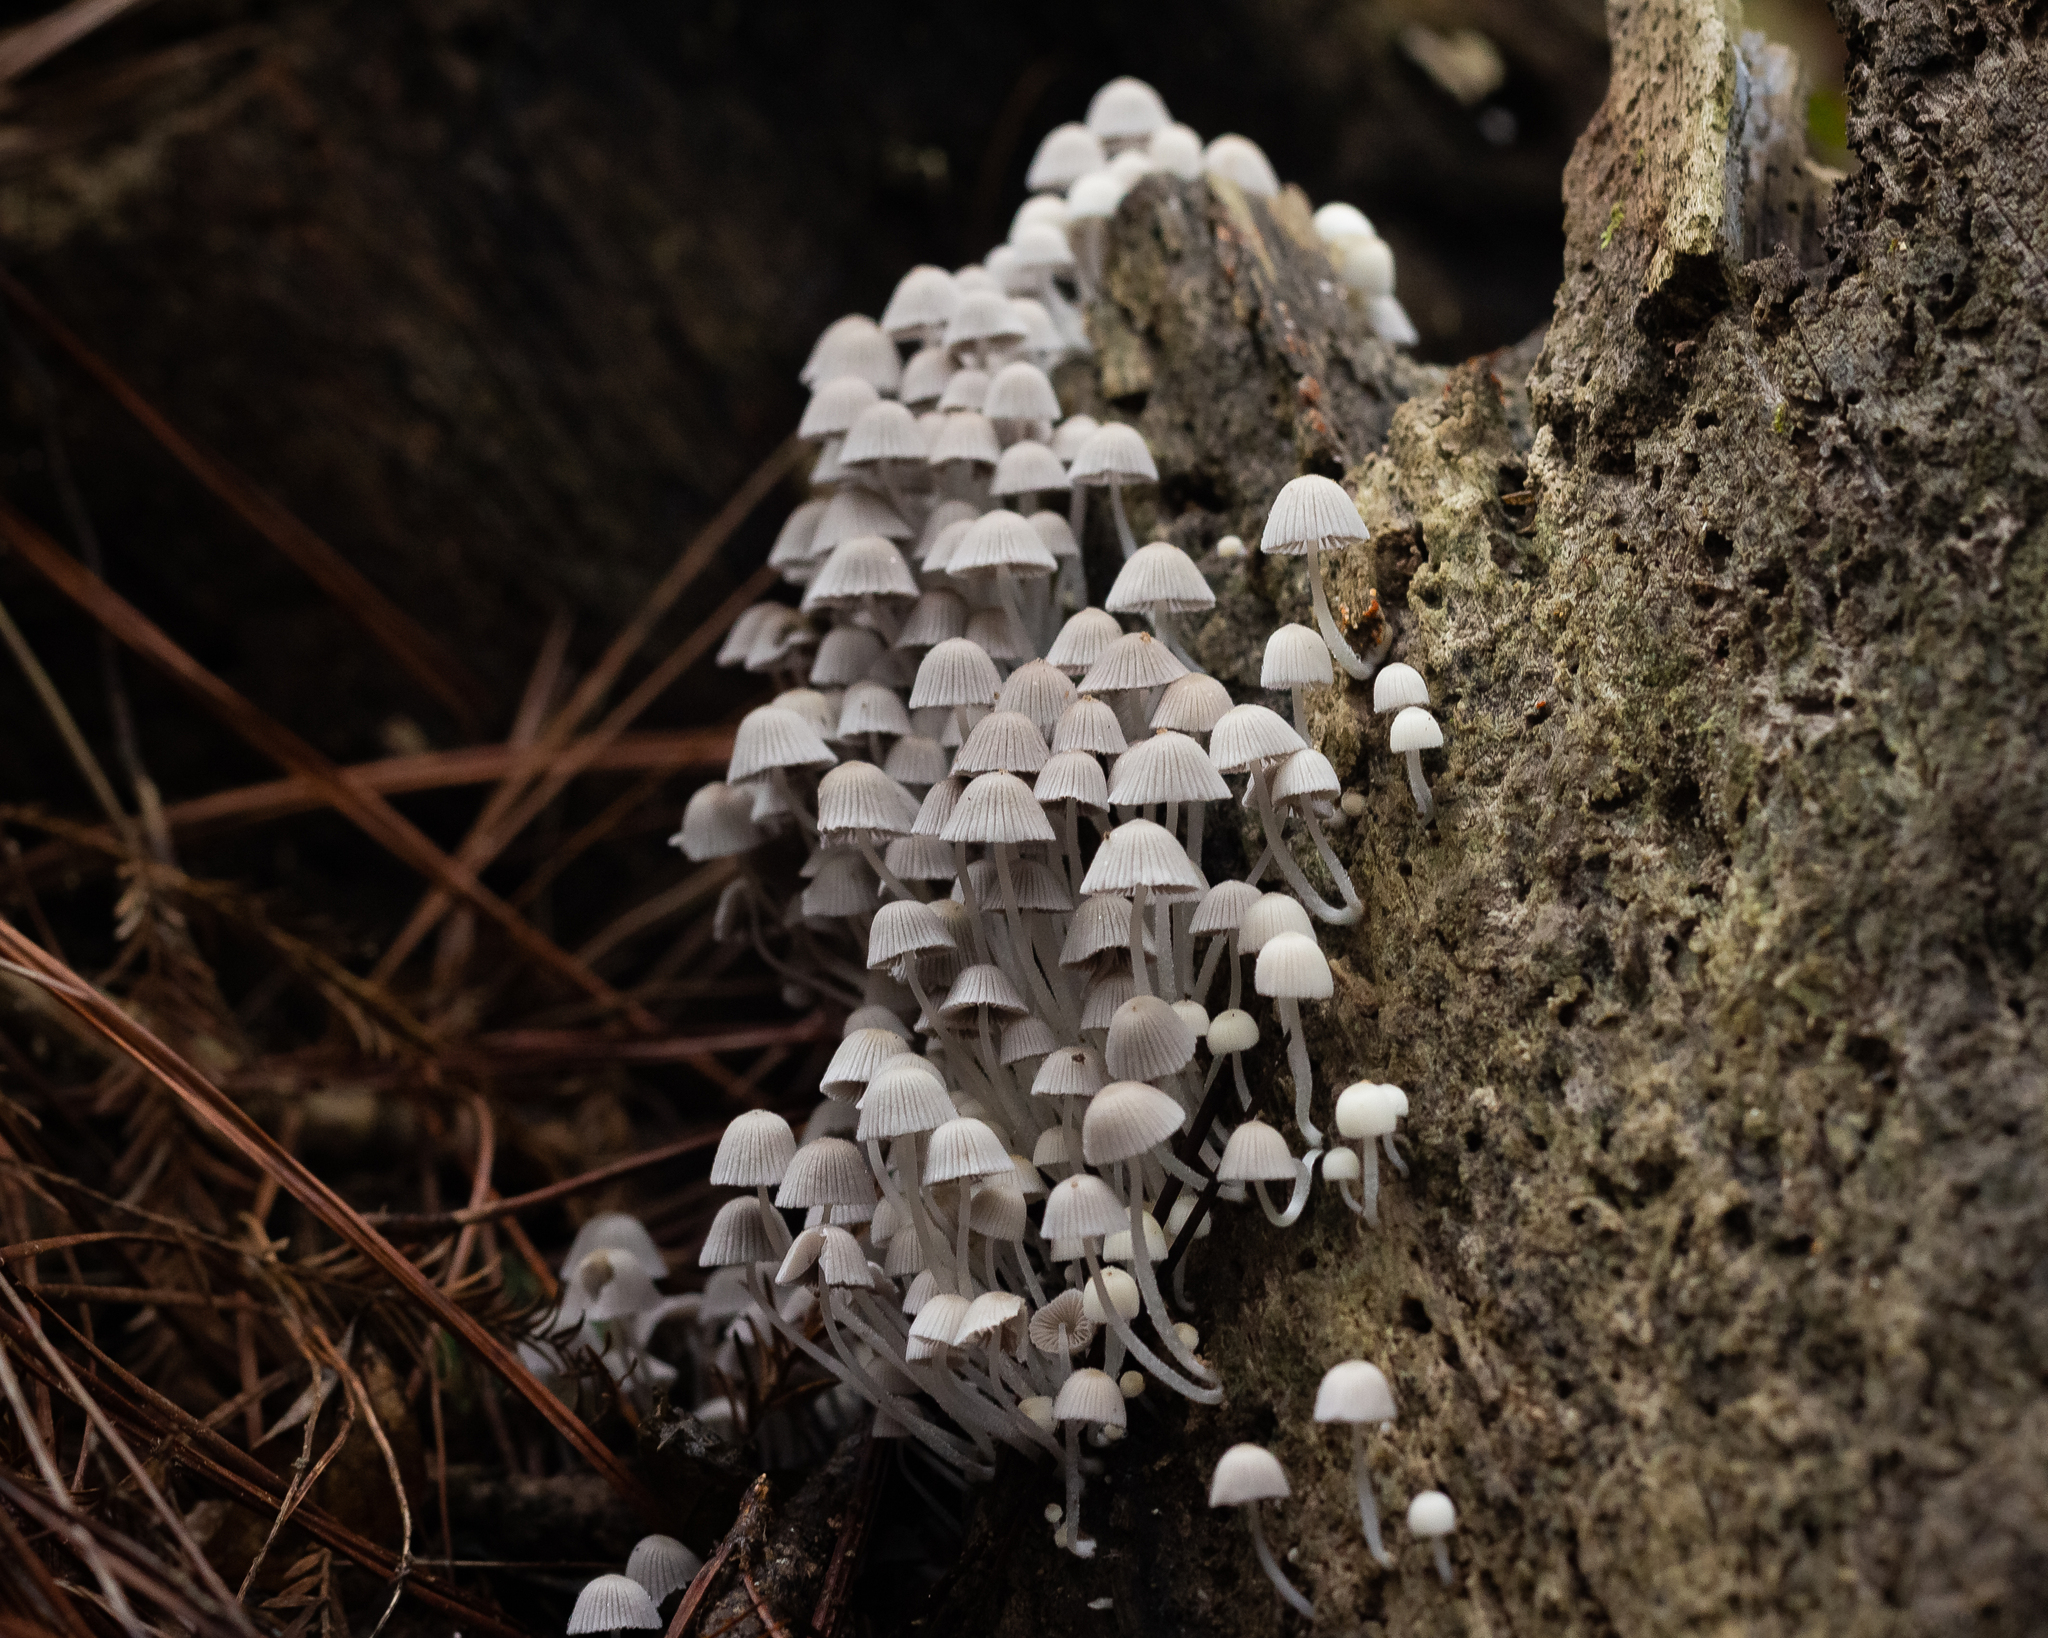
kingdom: Fungi
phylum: Basidiomycota
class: Agaricomycetes
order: Agaricales
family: Psathyrellaceae
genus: Coprinellus
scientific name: Coprinellus disseminatus
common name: Fairies' bonnets
